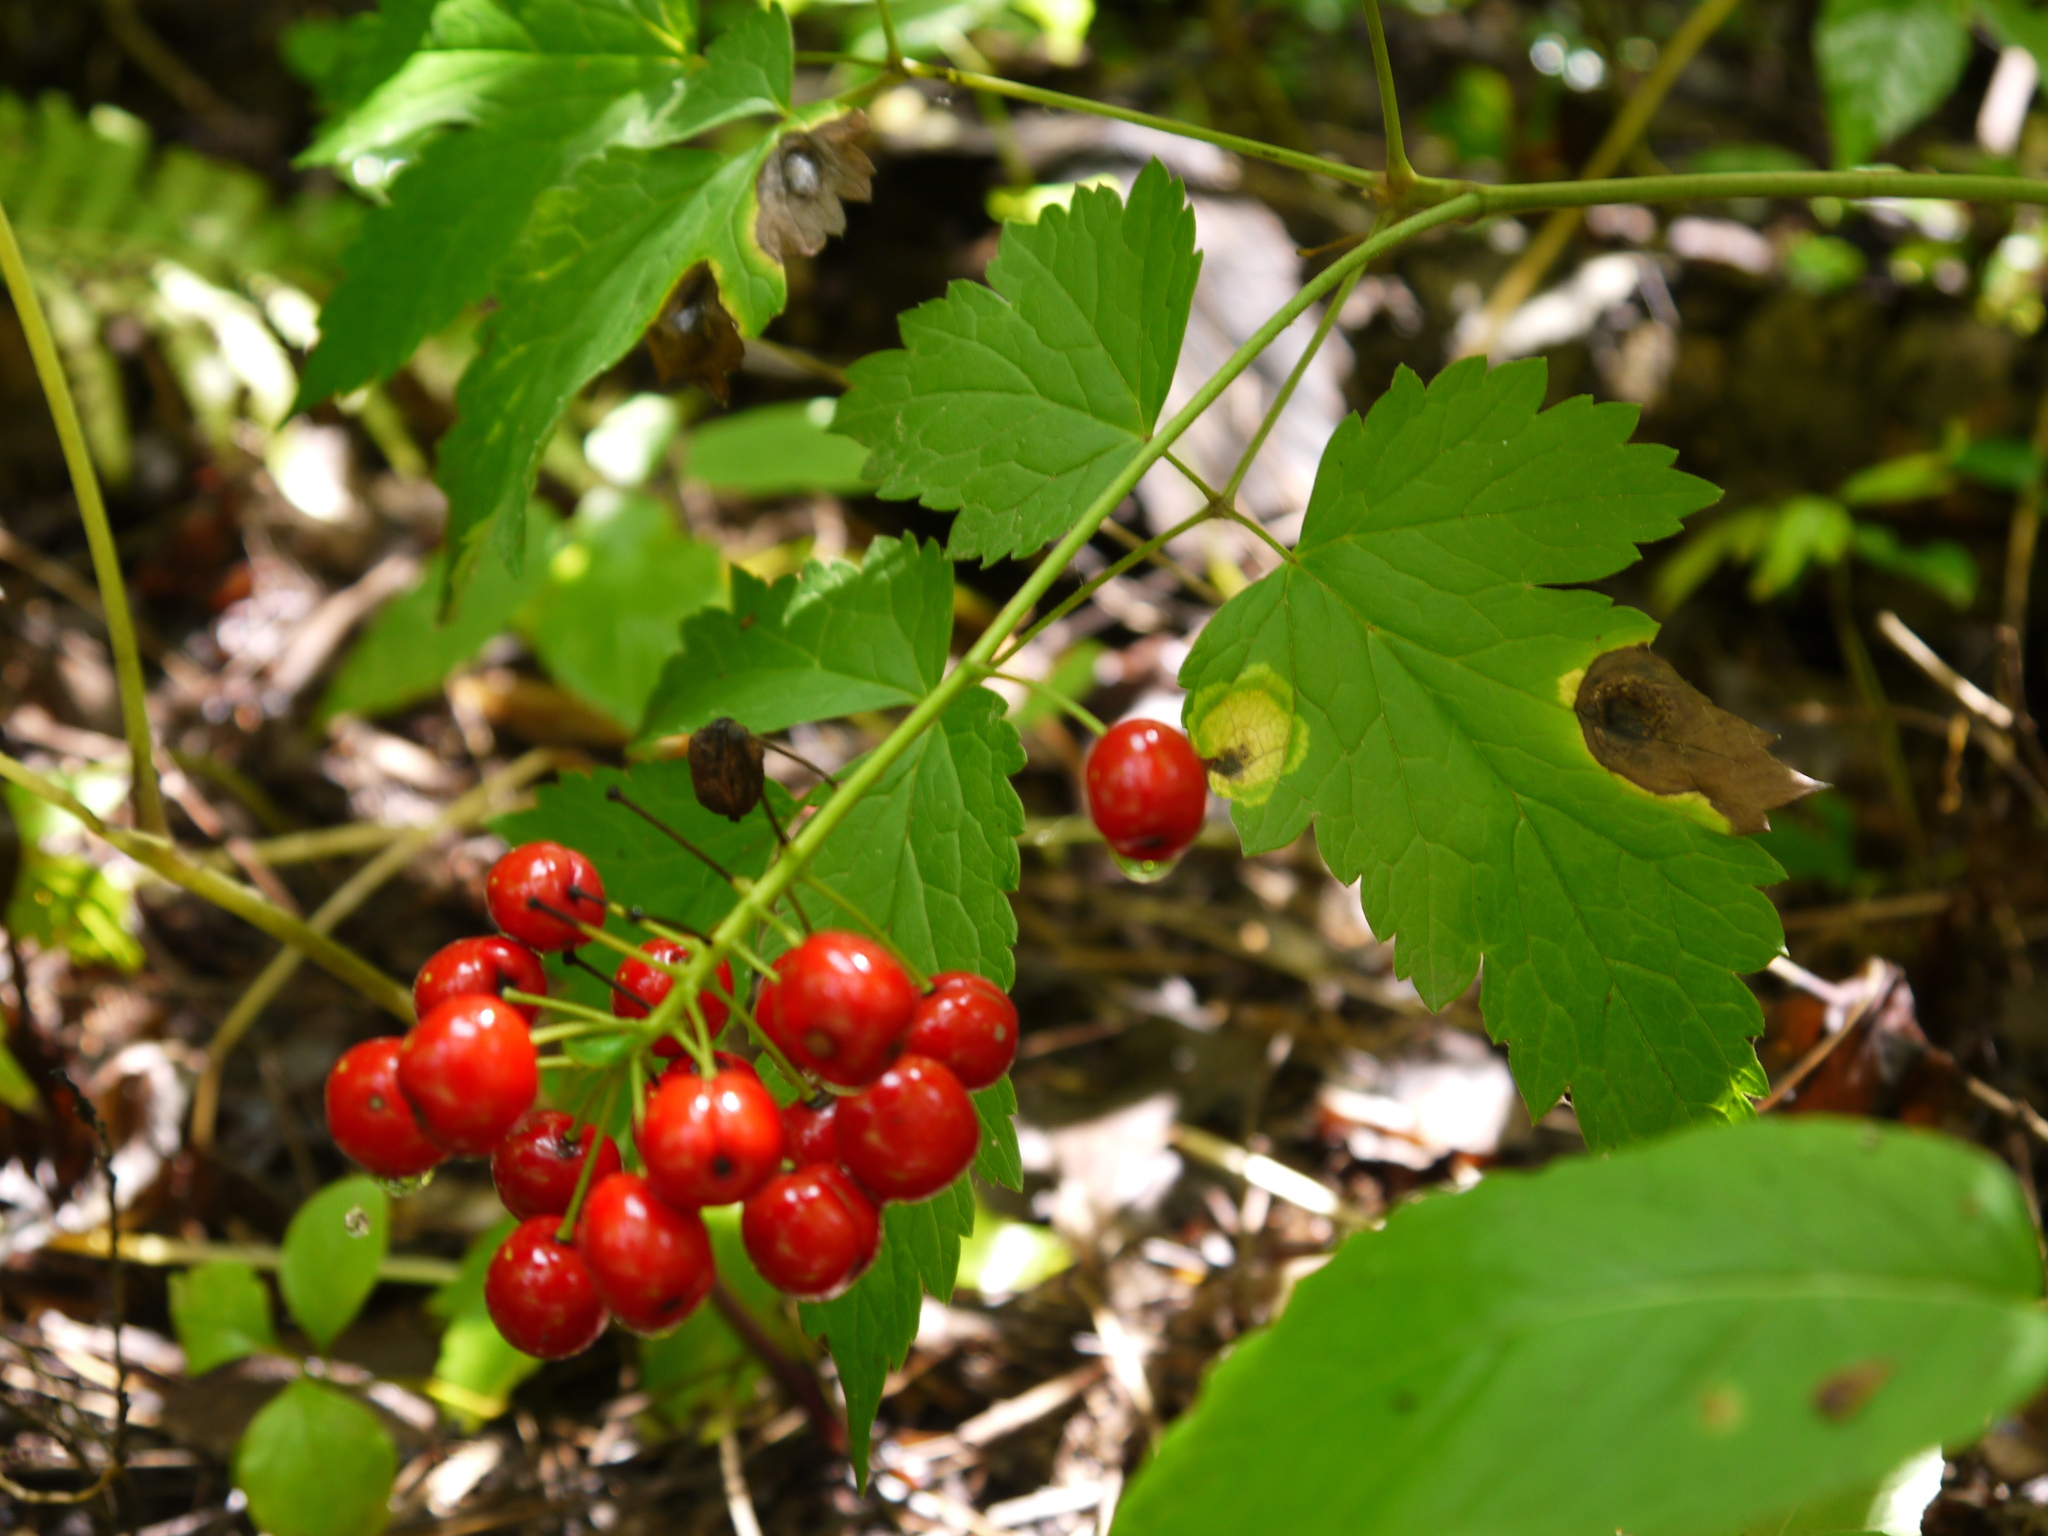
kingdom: Plantae
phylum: Tracheophyta
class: Magnoliopsida
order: Ranunculales
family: Ranunculaceae
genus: Actaea
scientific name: Actaea rubra
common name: Red baneberry
